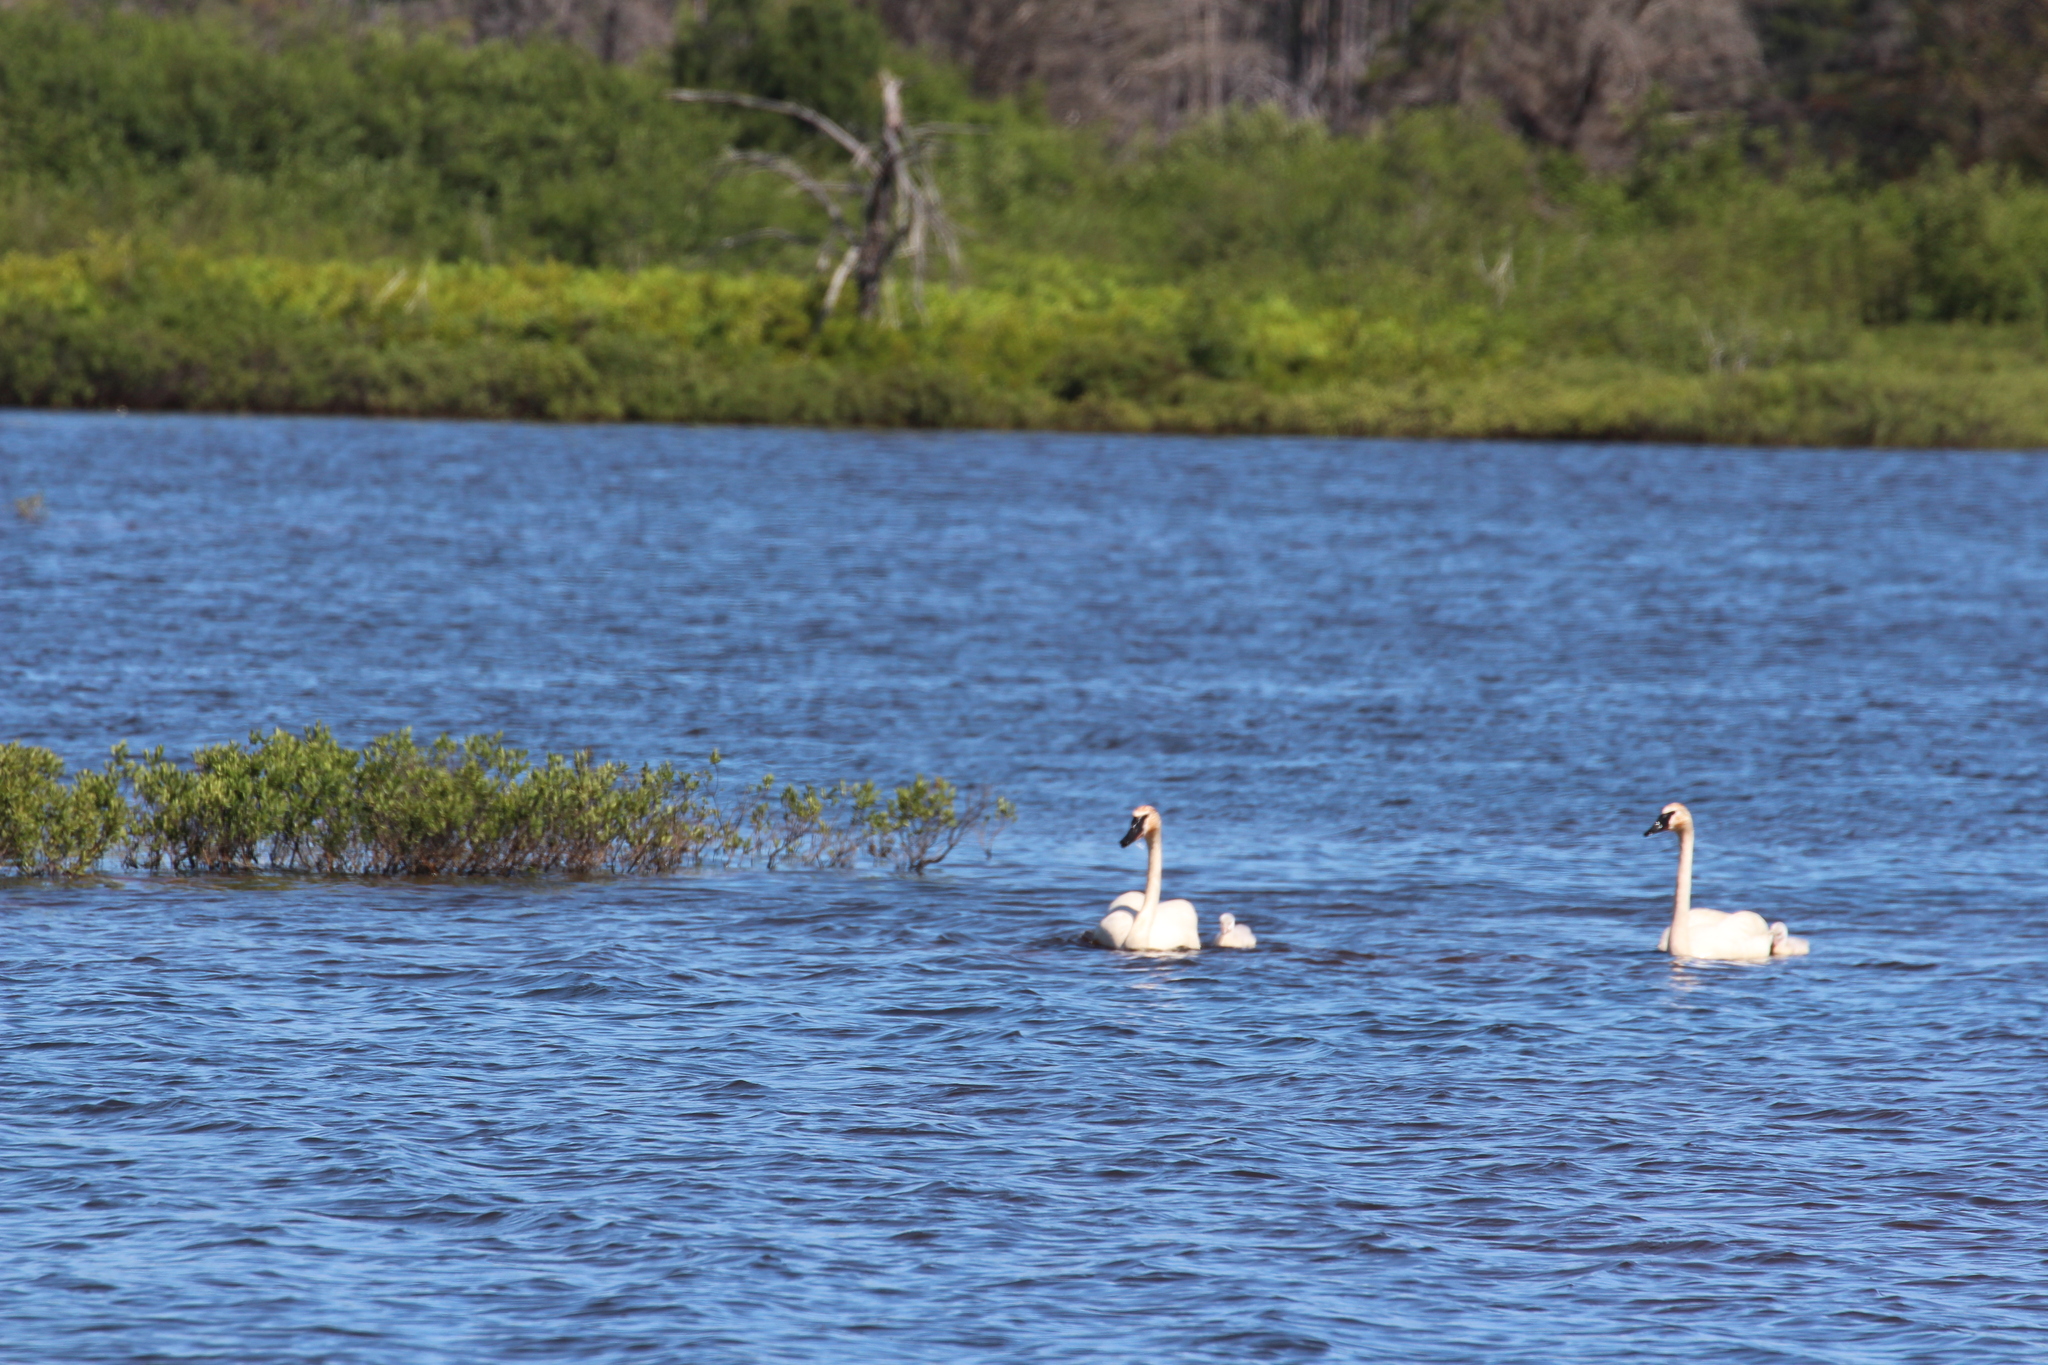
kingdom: Animalia
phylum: Chordata
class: Aves
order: Anseriformes
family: Anatidae
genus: Cygnus
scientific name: Cygnus buccinator
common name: Trumpeter swan
